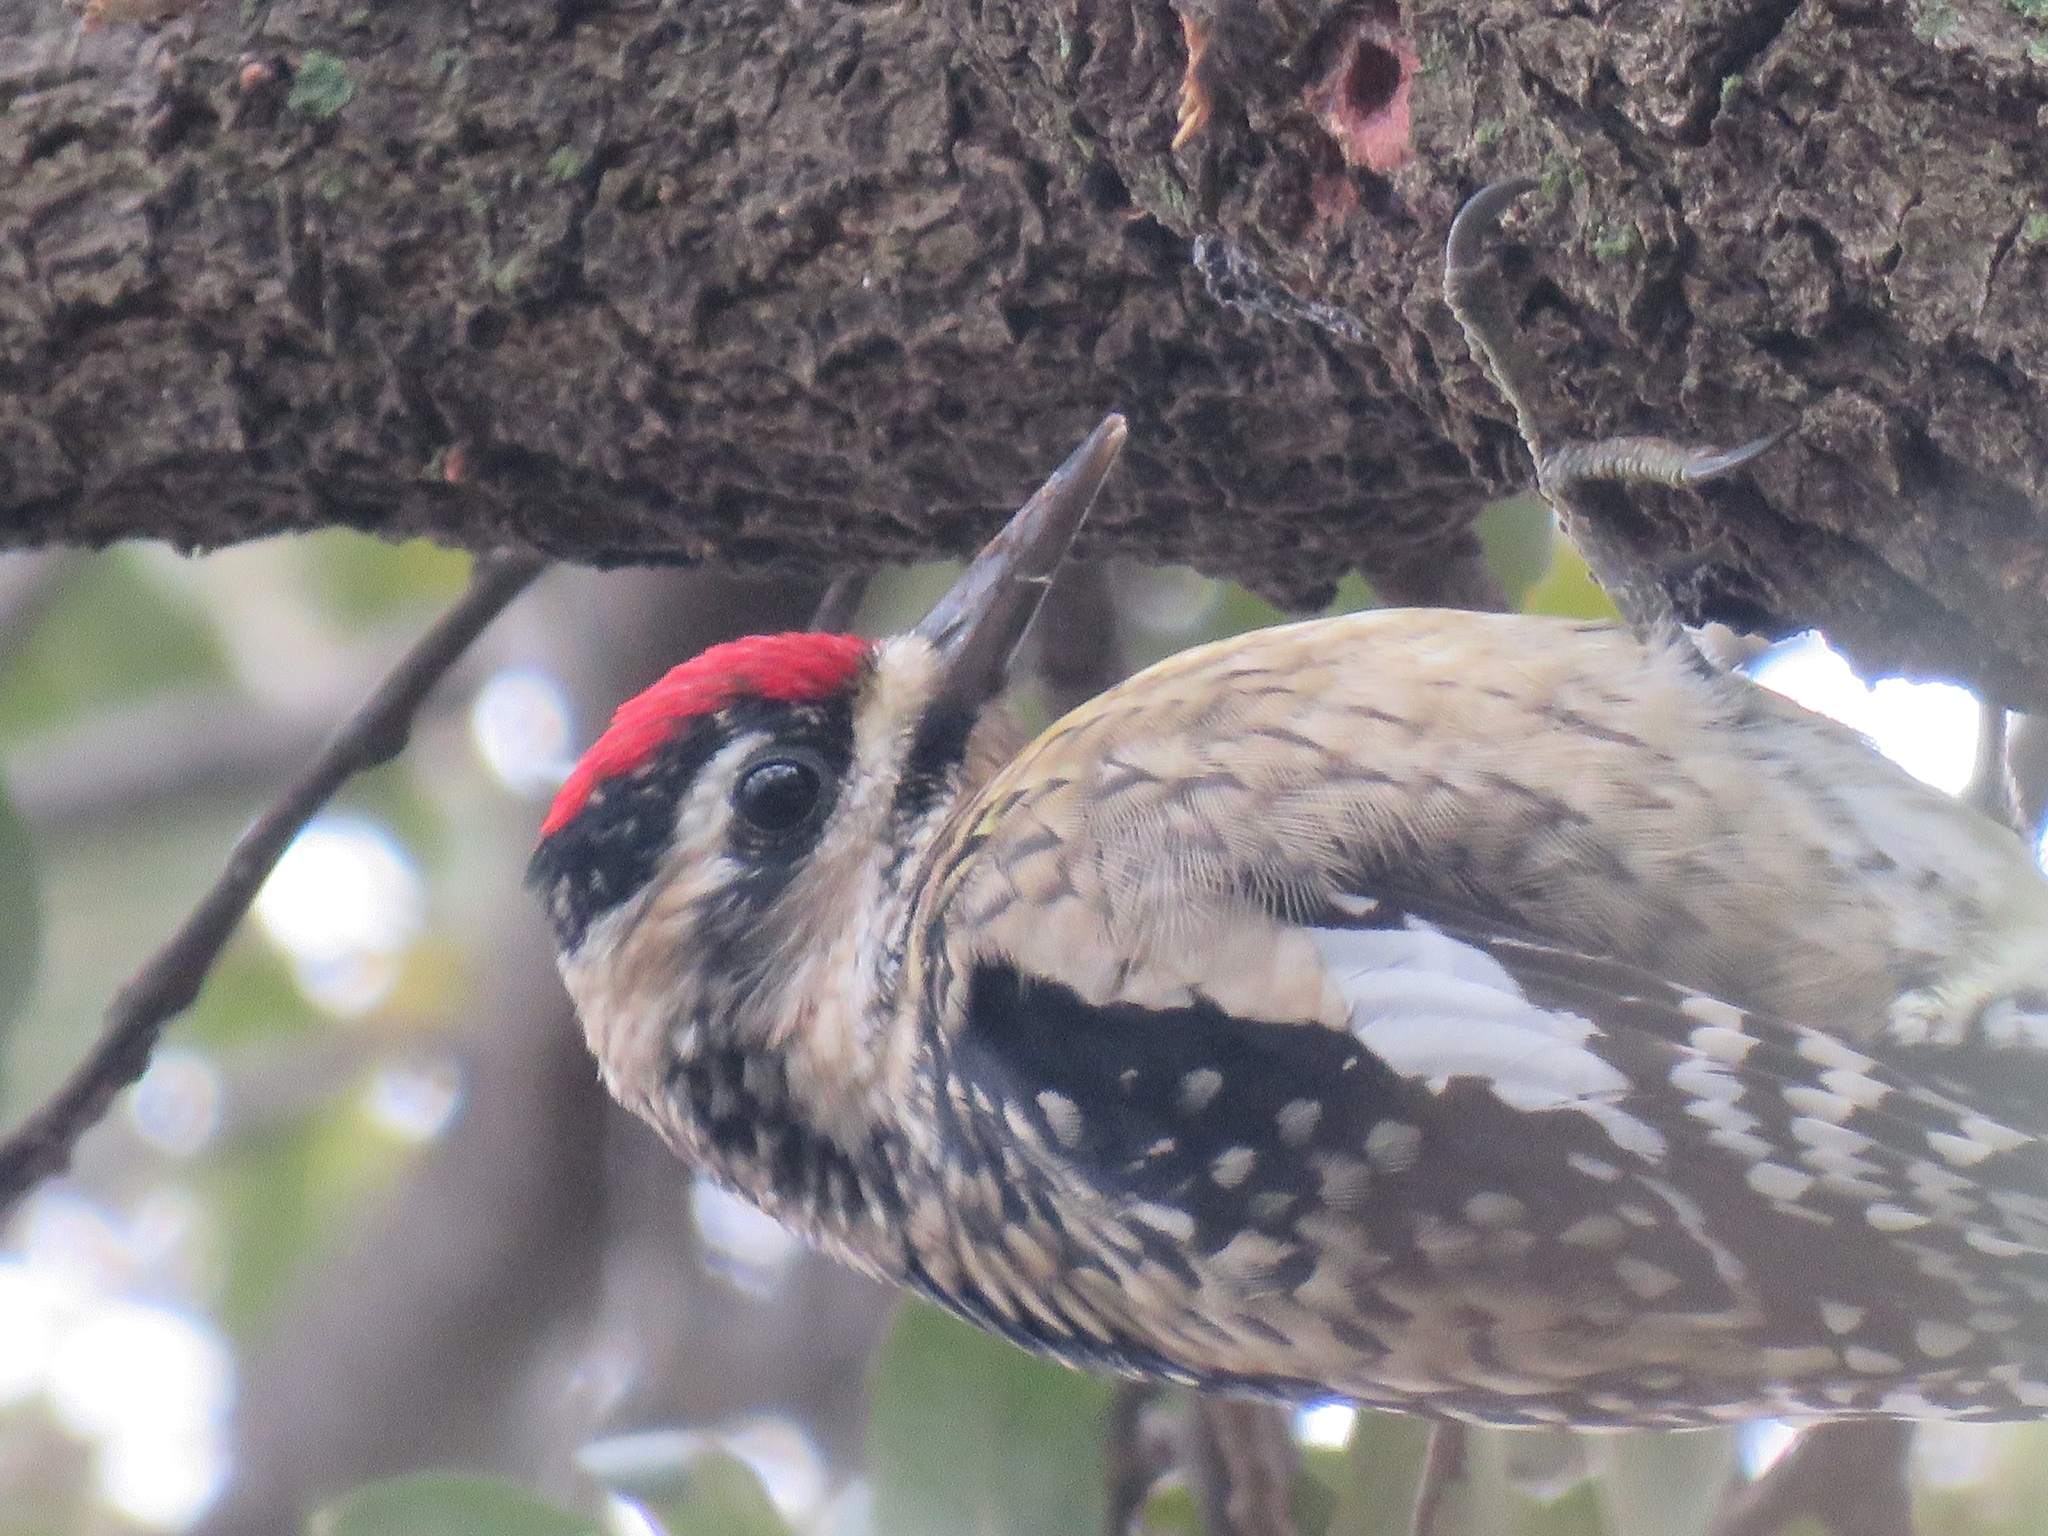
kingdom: Animalia
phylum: Chordata
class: Aves
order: Piciformes
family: Picidae
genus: Sphyrapicus
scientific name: Sphyrapicus varius
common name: Yellow-bellied sapsucker
